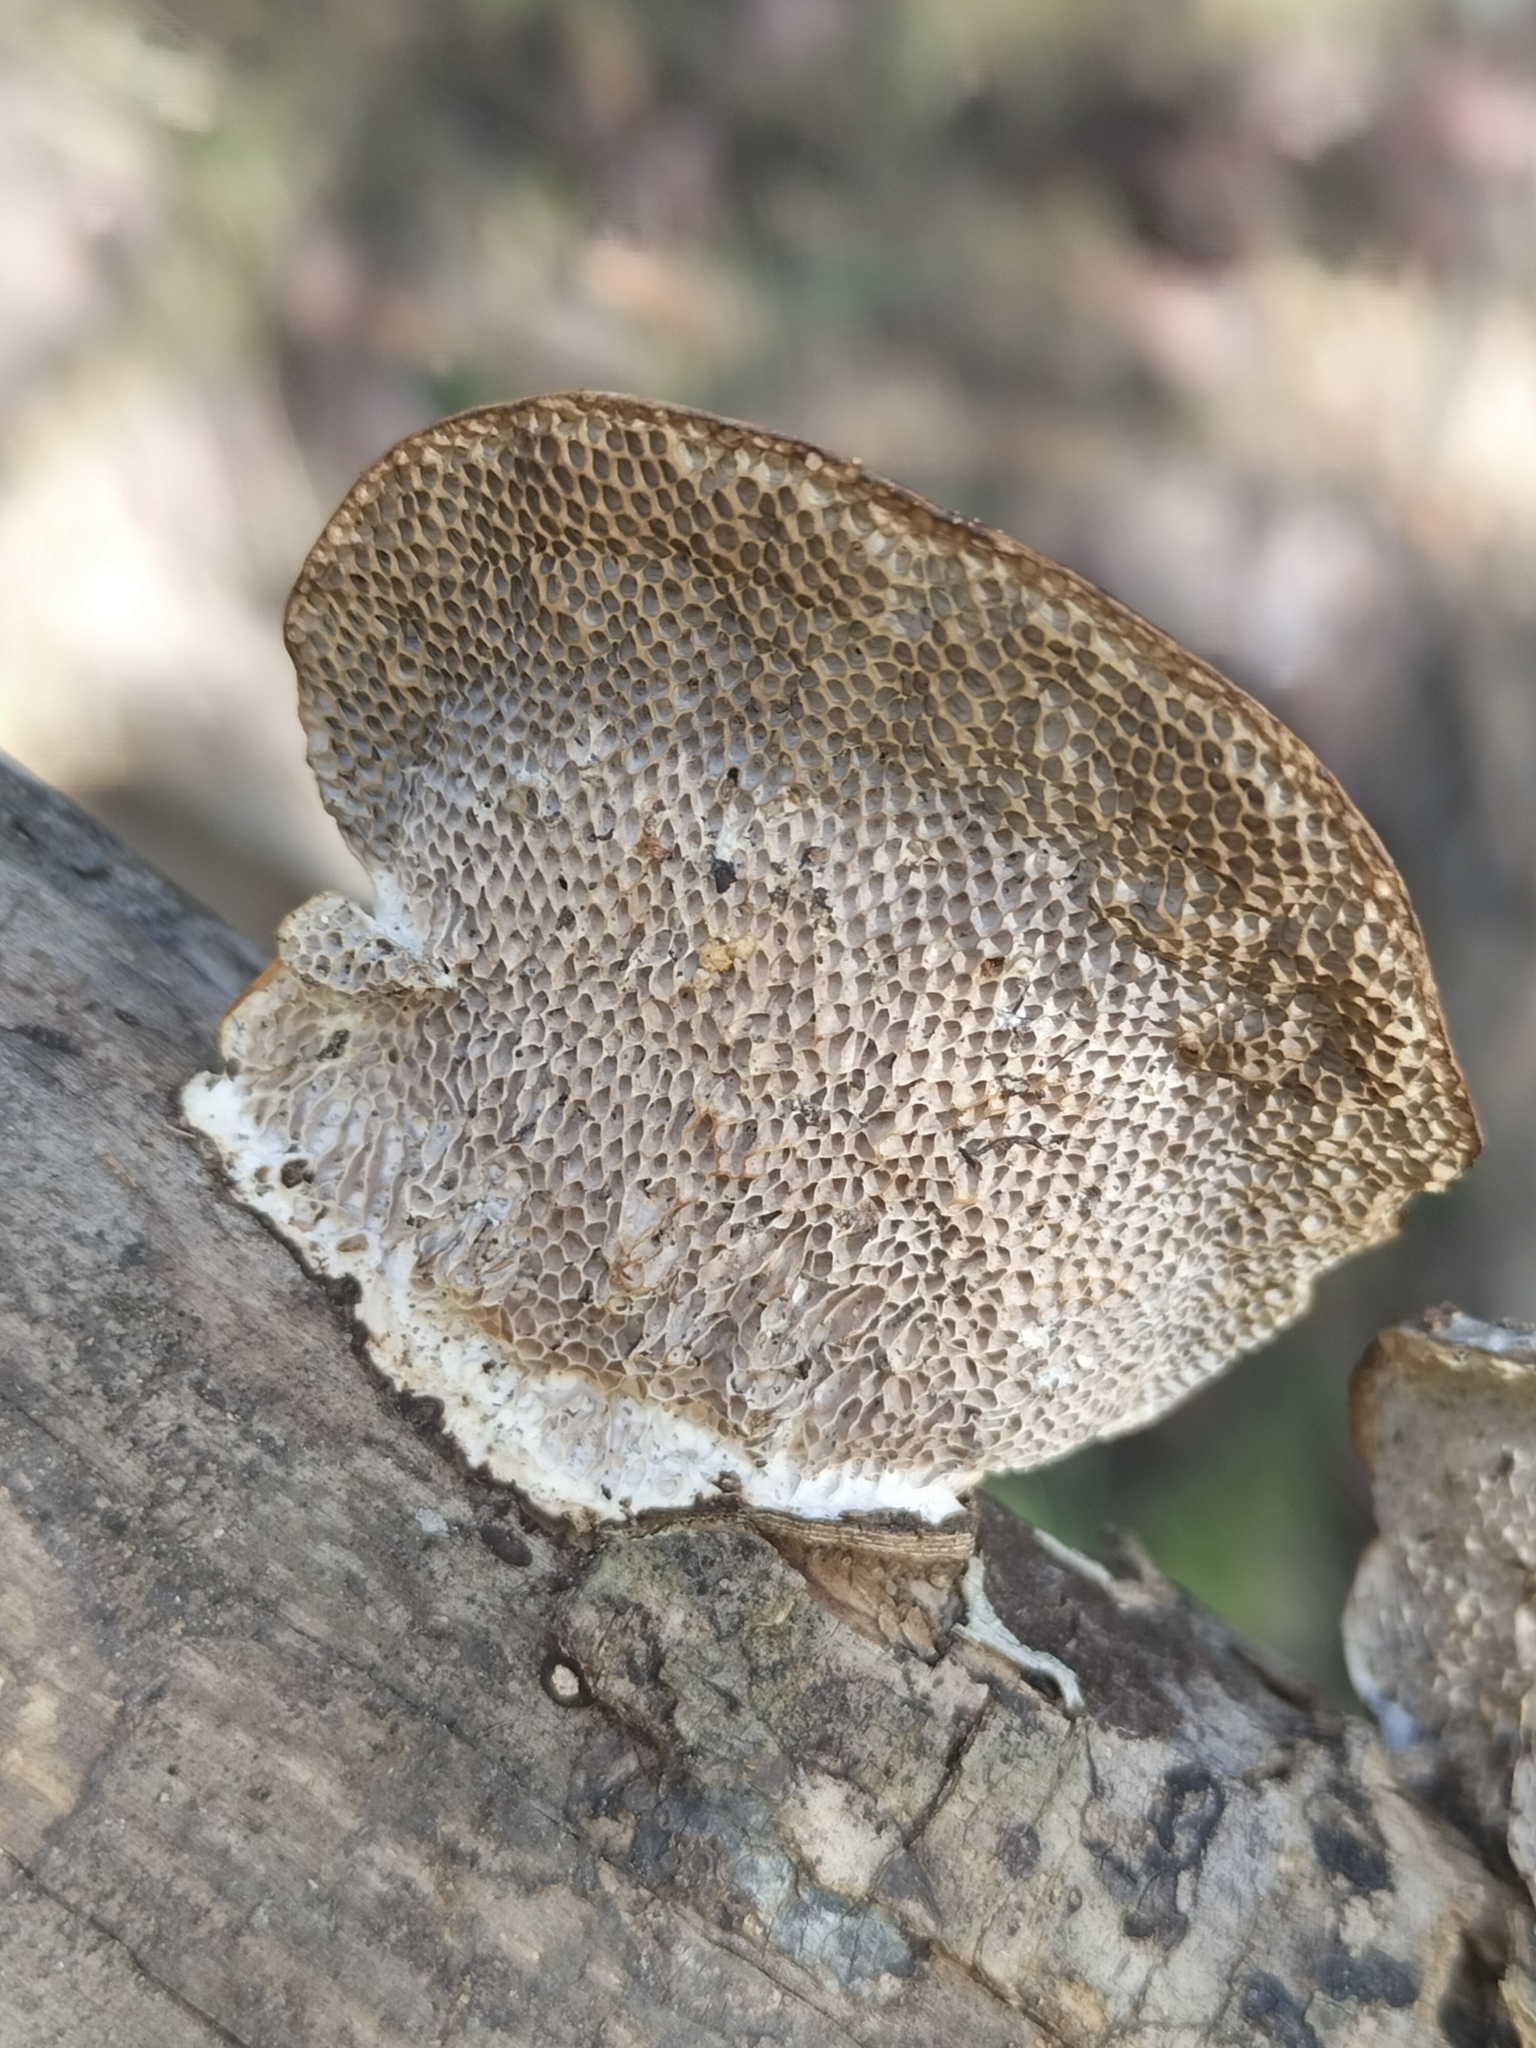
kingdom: Fungi
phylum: Basidiomycota
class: Agaricomycetes
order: Polyporales
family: Polyporaceae
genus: Pseudofavolus
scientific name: Pseudofavolus tenuis
